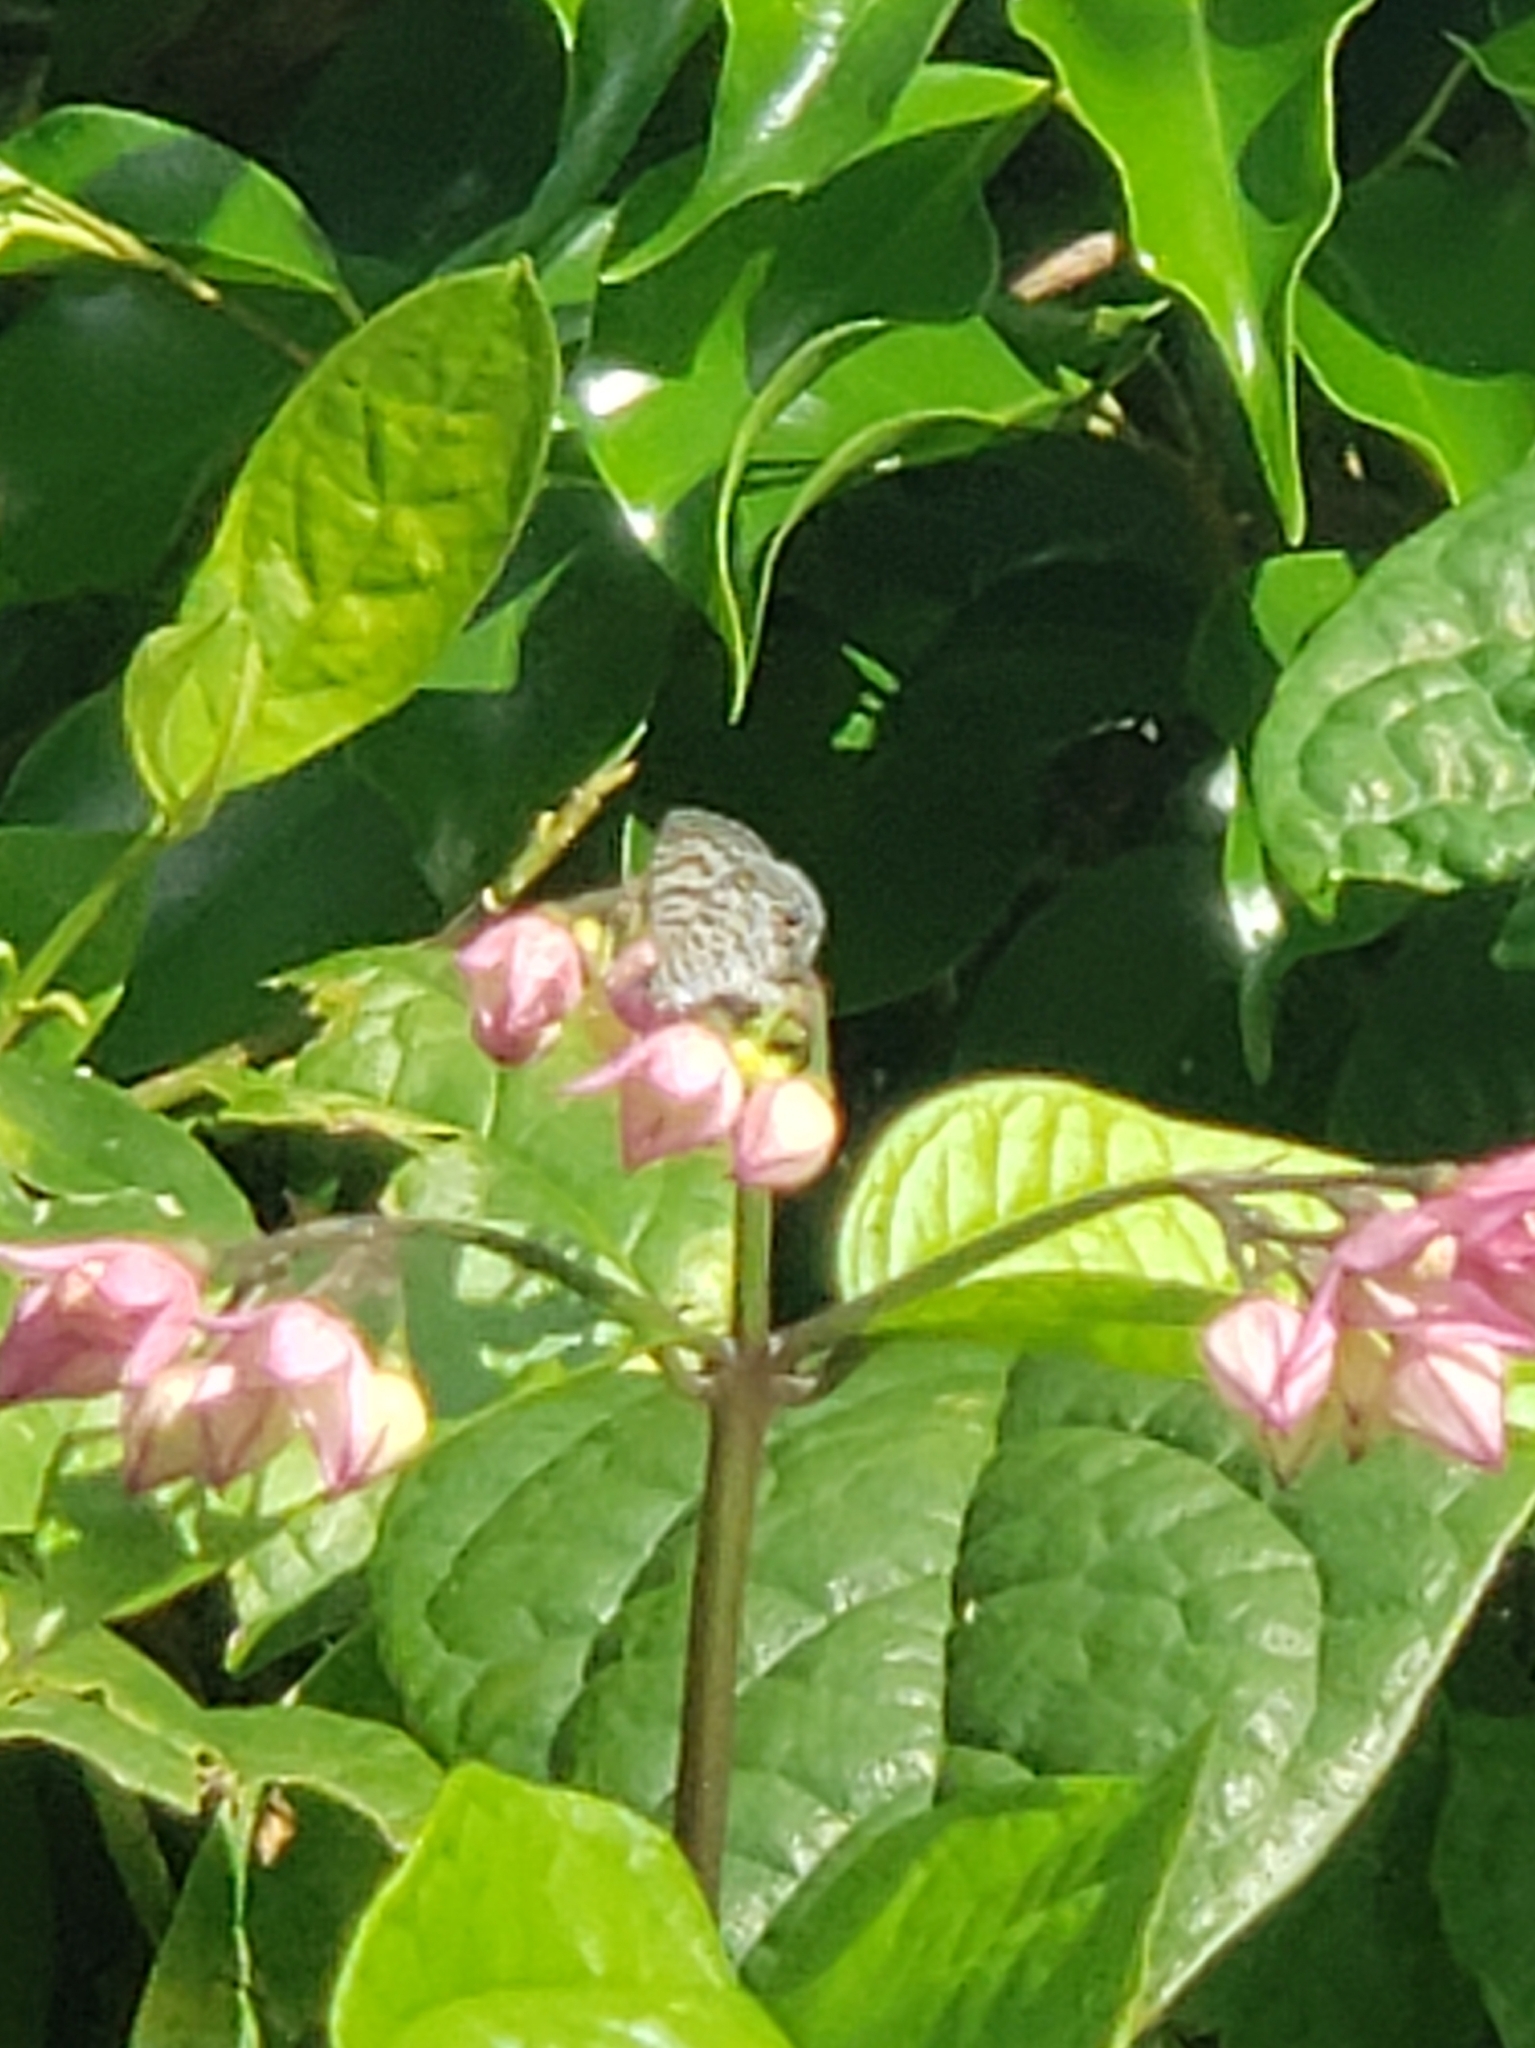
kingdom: Animalia
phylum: Arthropoda
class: Insecta
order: Lepidoptera
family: Lycaenidae
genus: Leptotes
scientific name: Leptotes cassius
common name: Cassius blue
